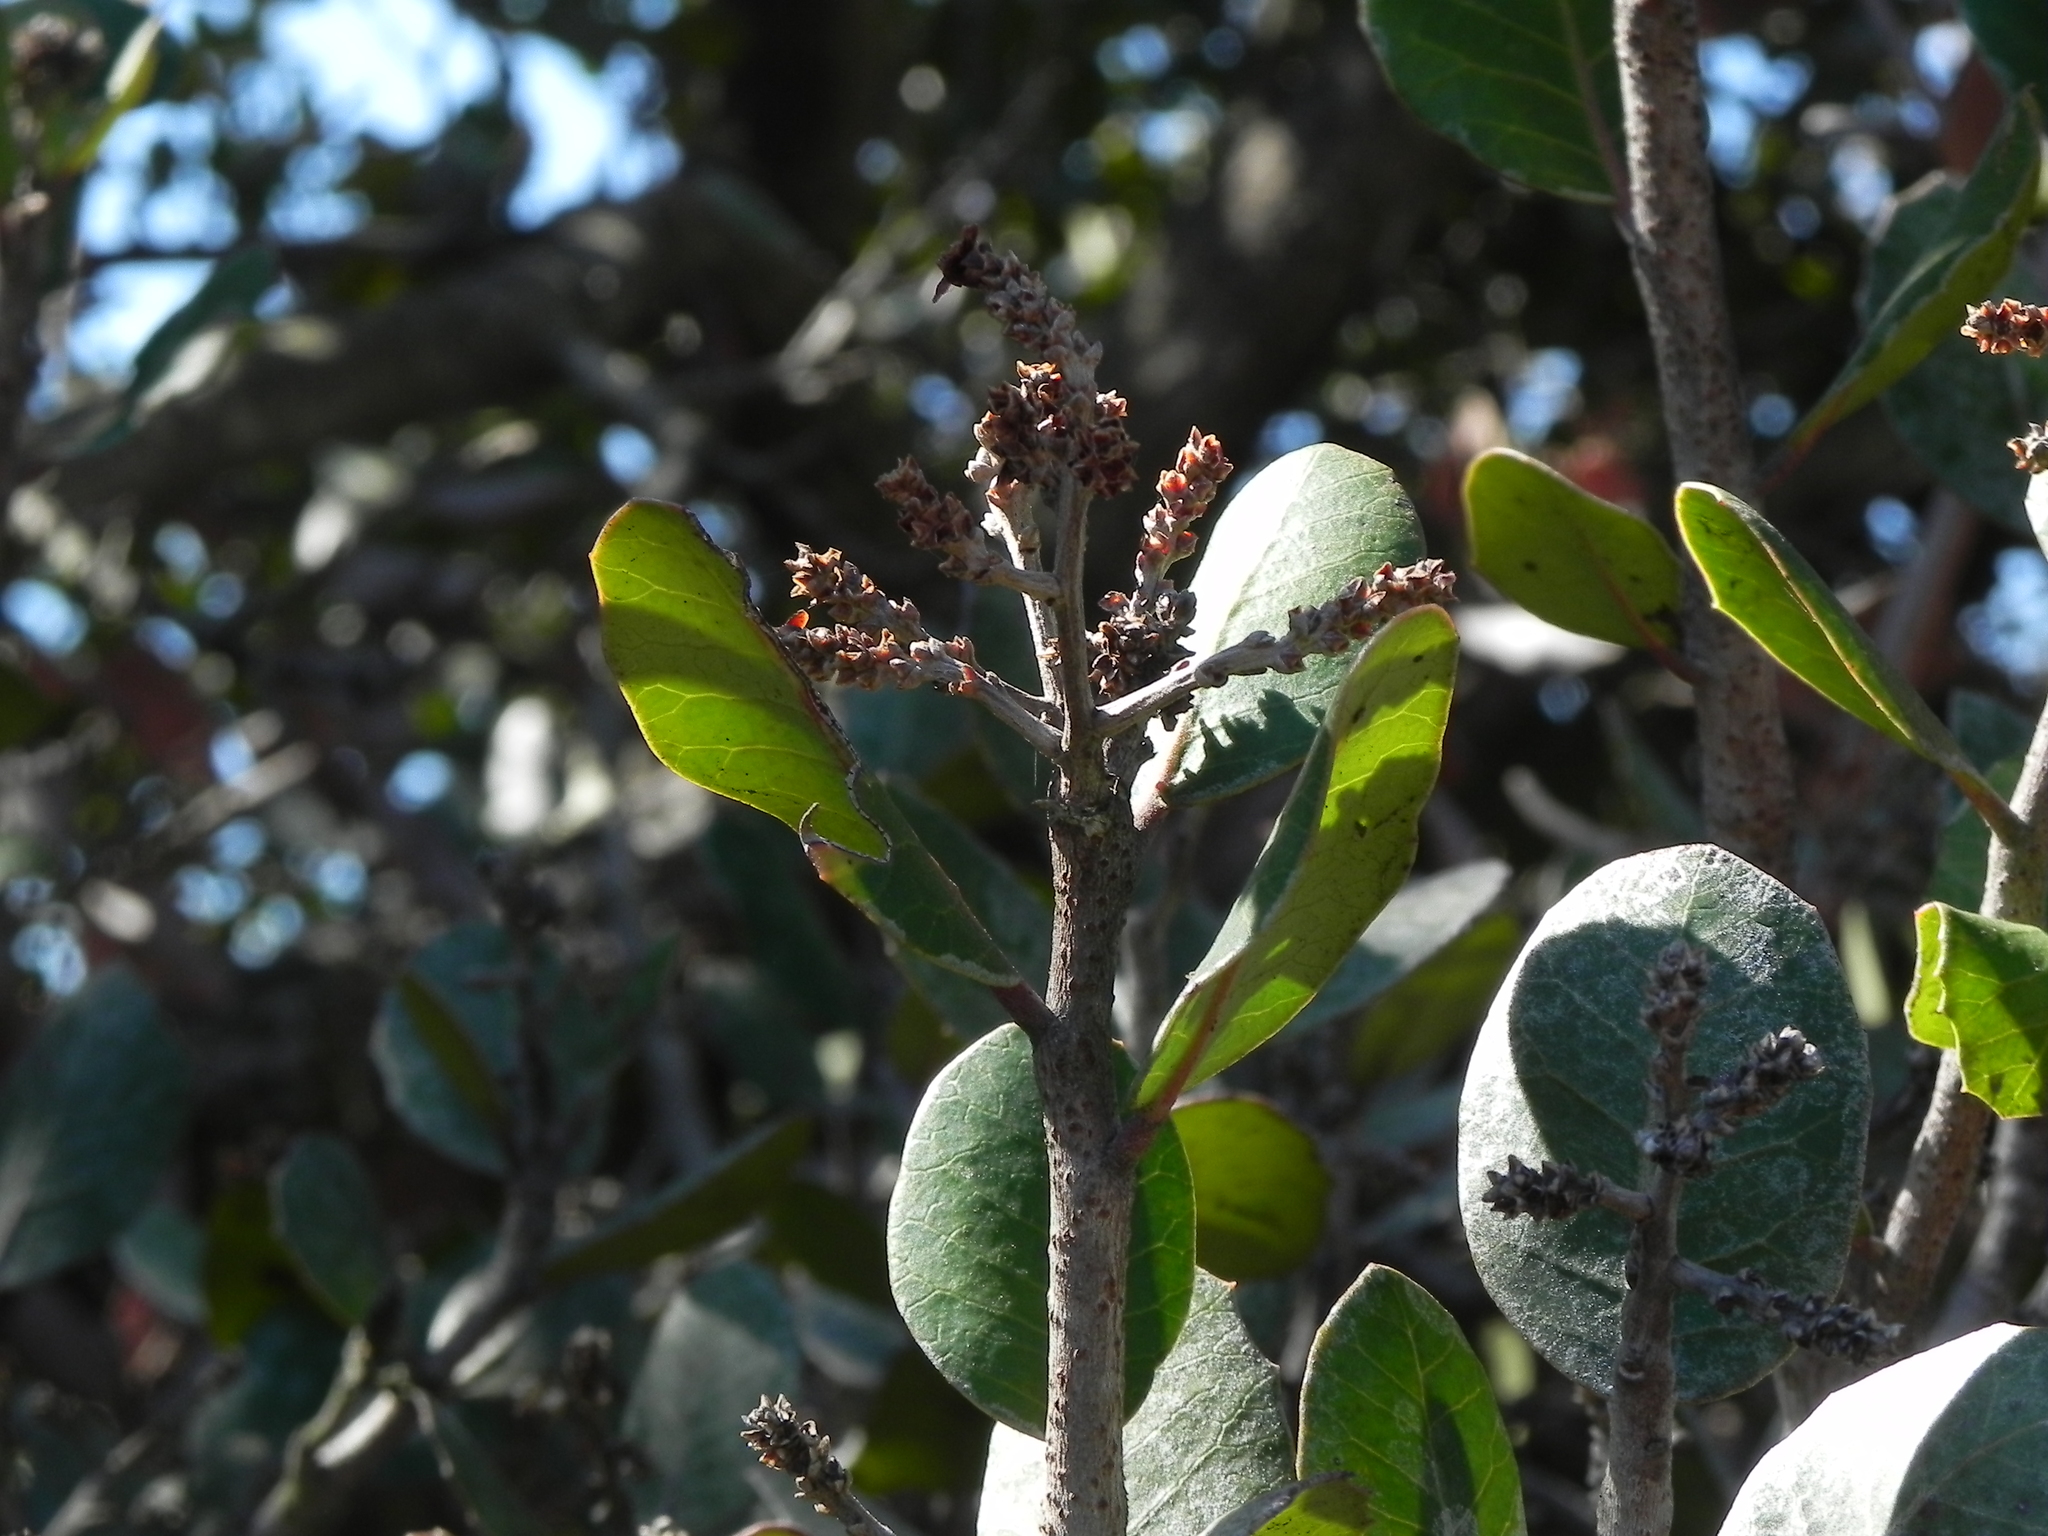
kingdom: Plantae
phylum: Tracheophyta
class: Magnoliopsida
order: Sapindales
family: Anacardiaceae
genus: Rhus
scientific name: Rhus integrifolia
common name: Lemonade sumac
